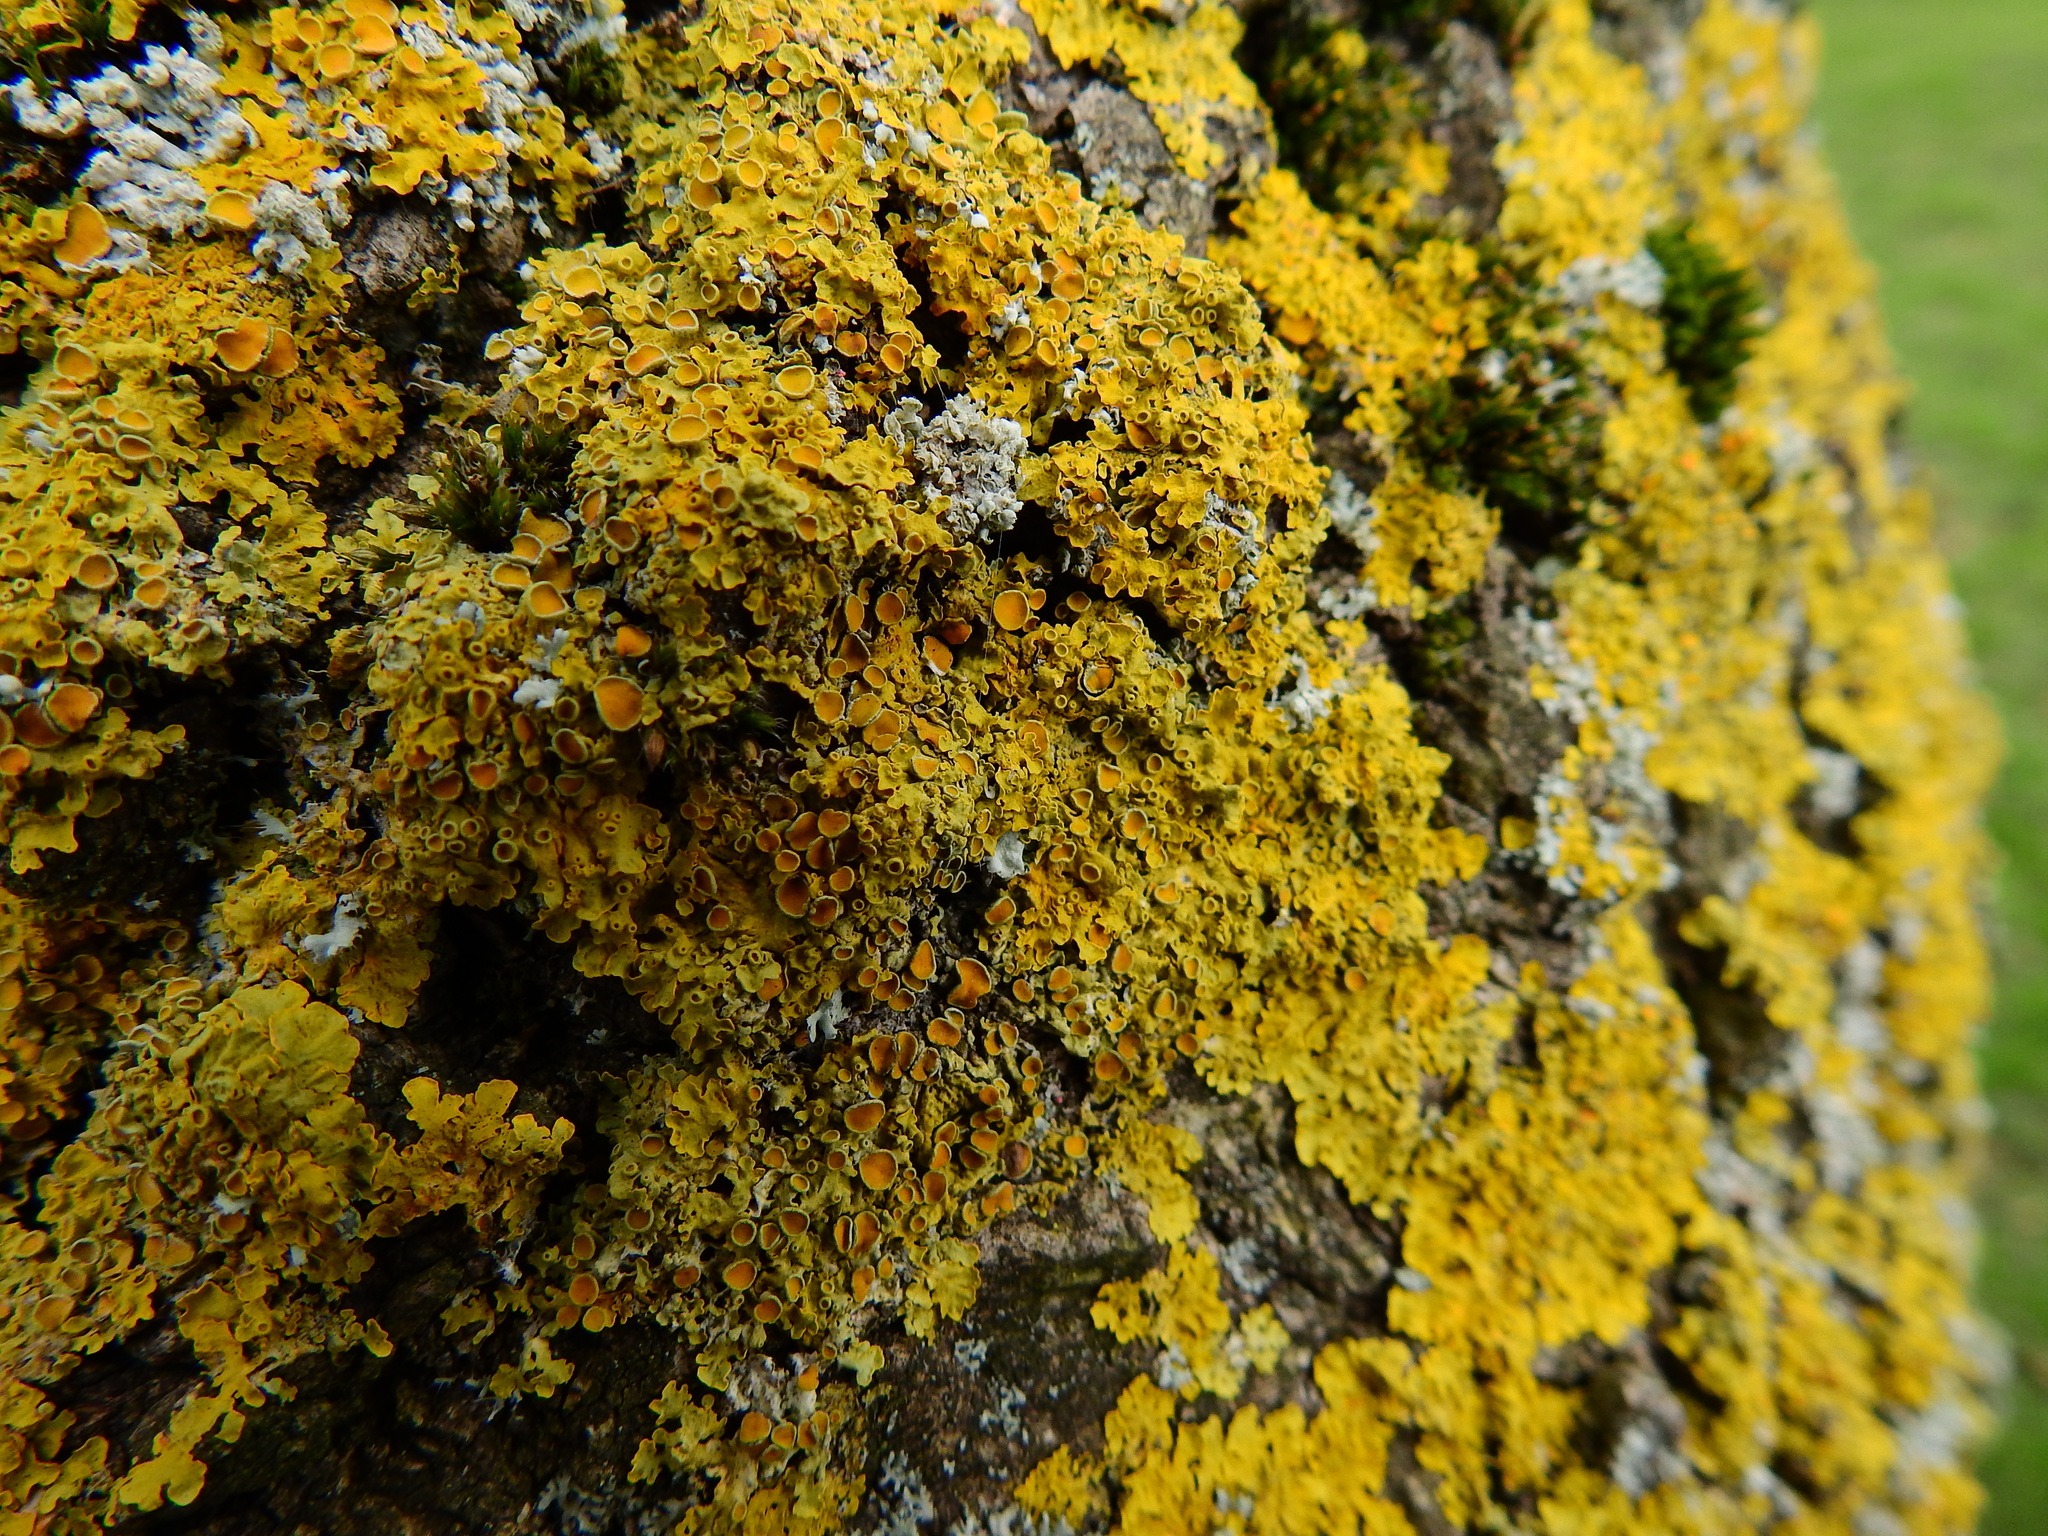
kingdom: Fungi
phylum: Ascomycota
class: Lecanoromycetes
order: Teloschistales
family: Teloschistaceae
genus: Xanthoria
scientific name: Xanthoria parietina
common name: Common orange lichen
